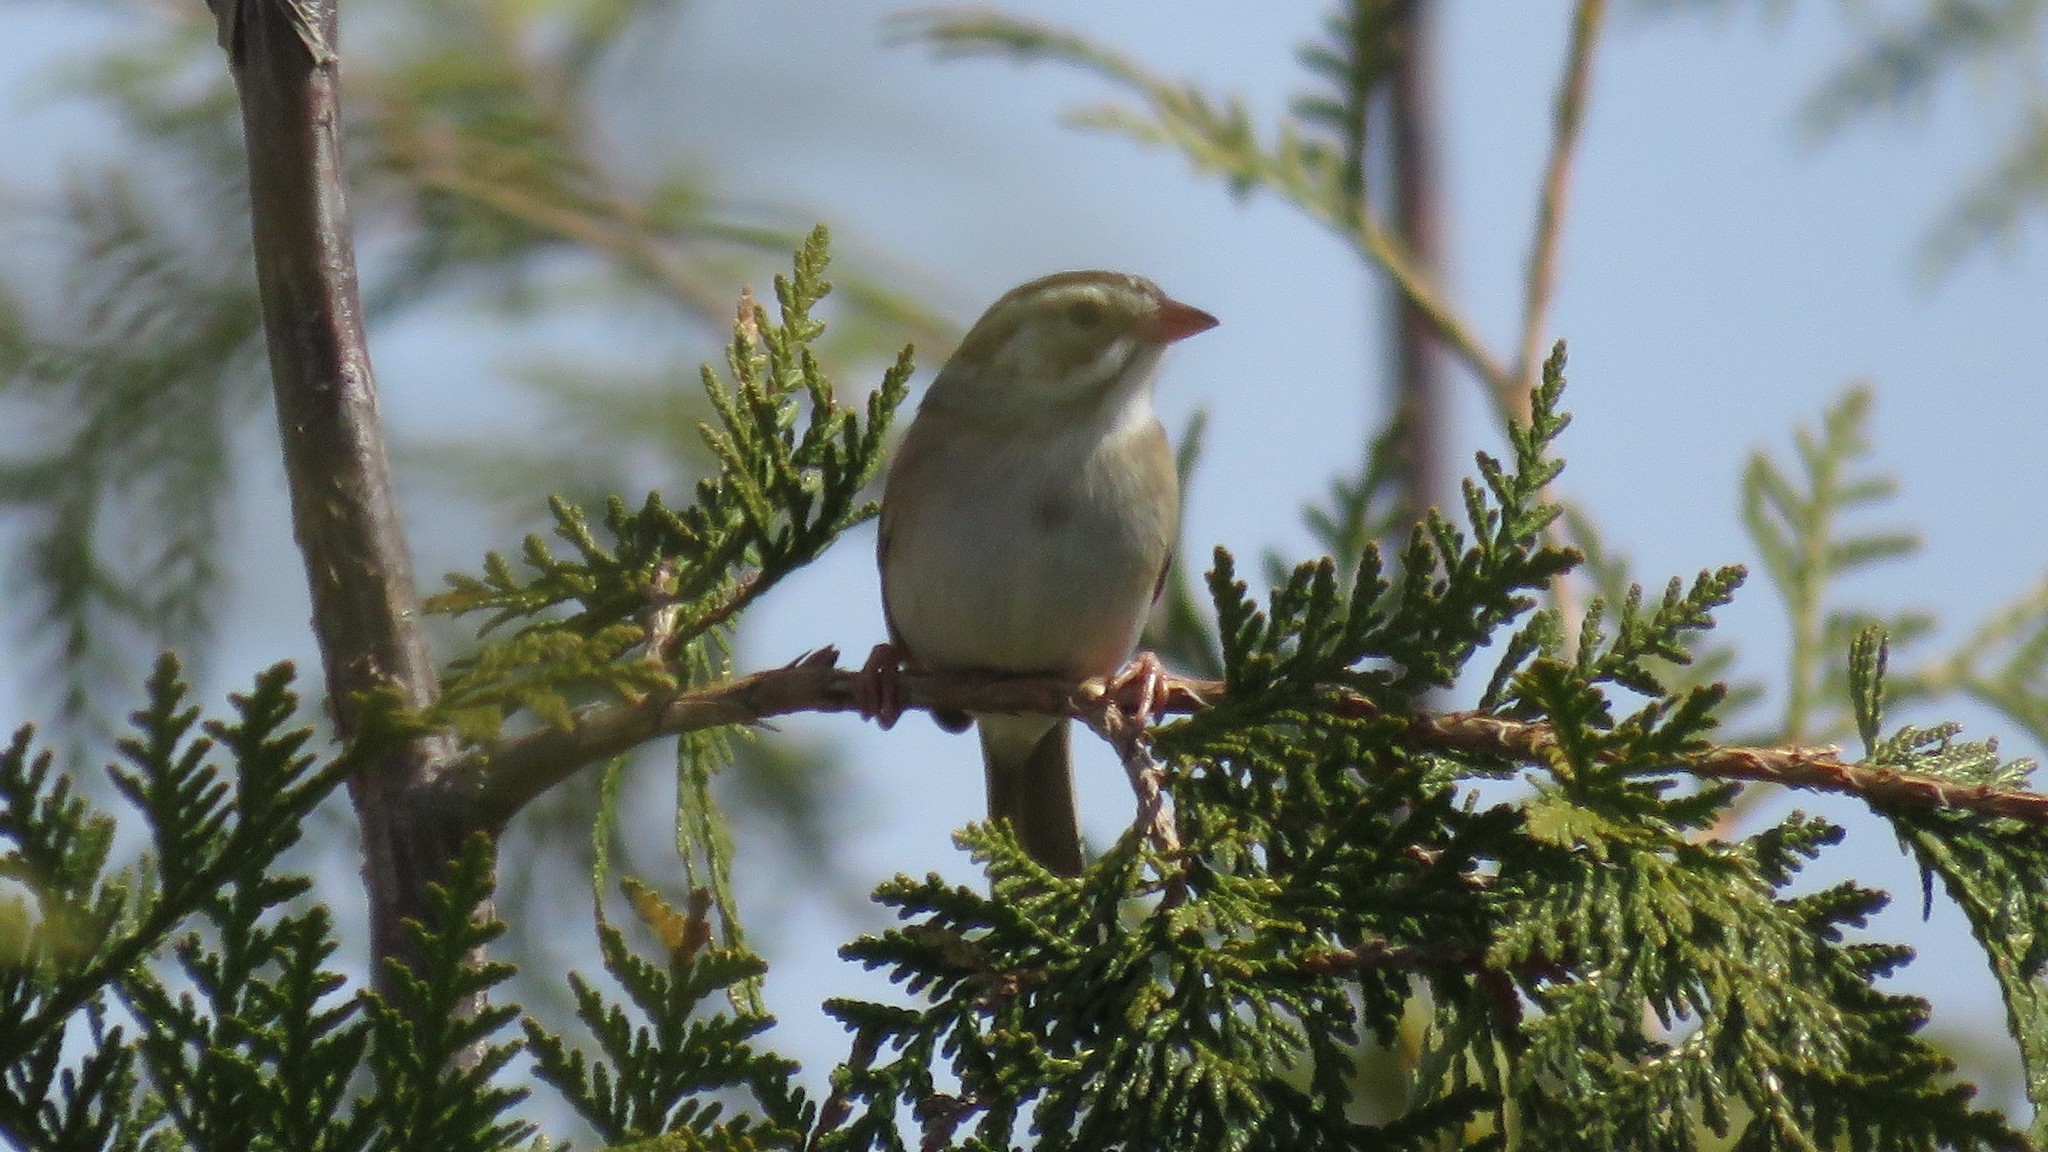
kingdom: Animalia
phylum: Chordata
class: Aves
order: Passeriformes
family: Passerellidae
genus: Spizella
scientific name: Spizella pallida
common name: Clay-colored sparrow
